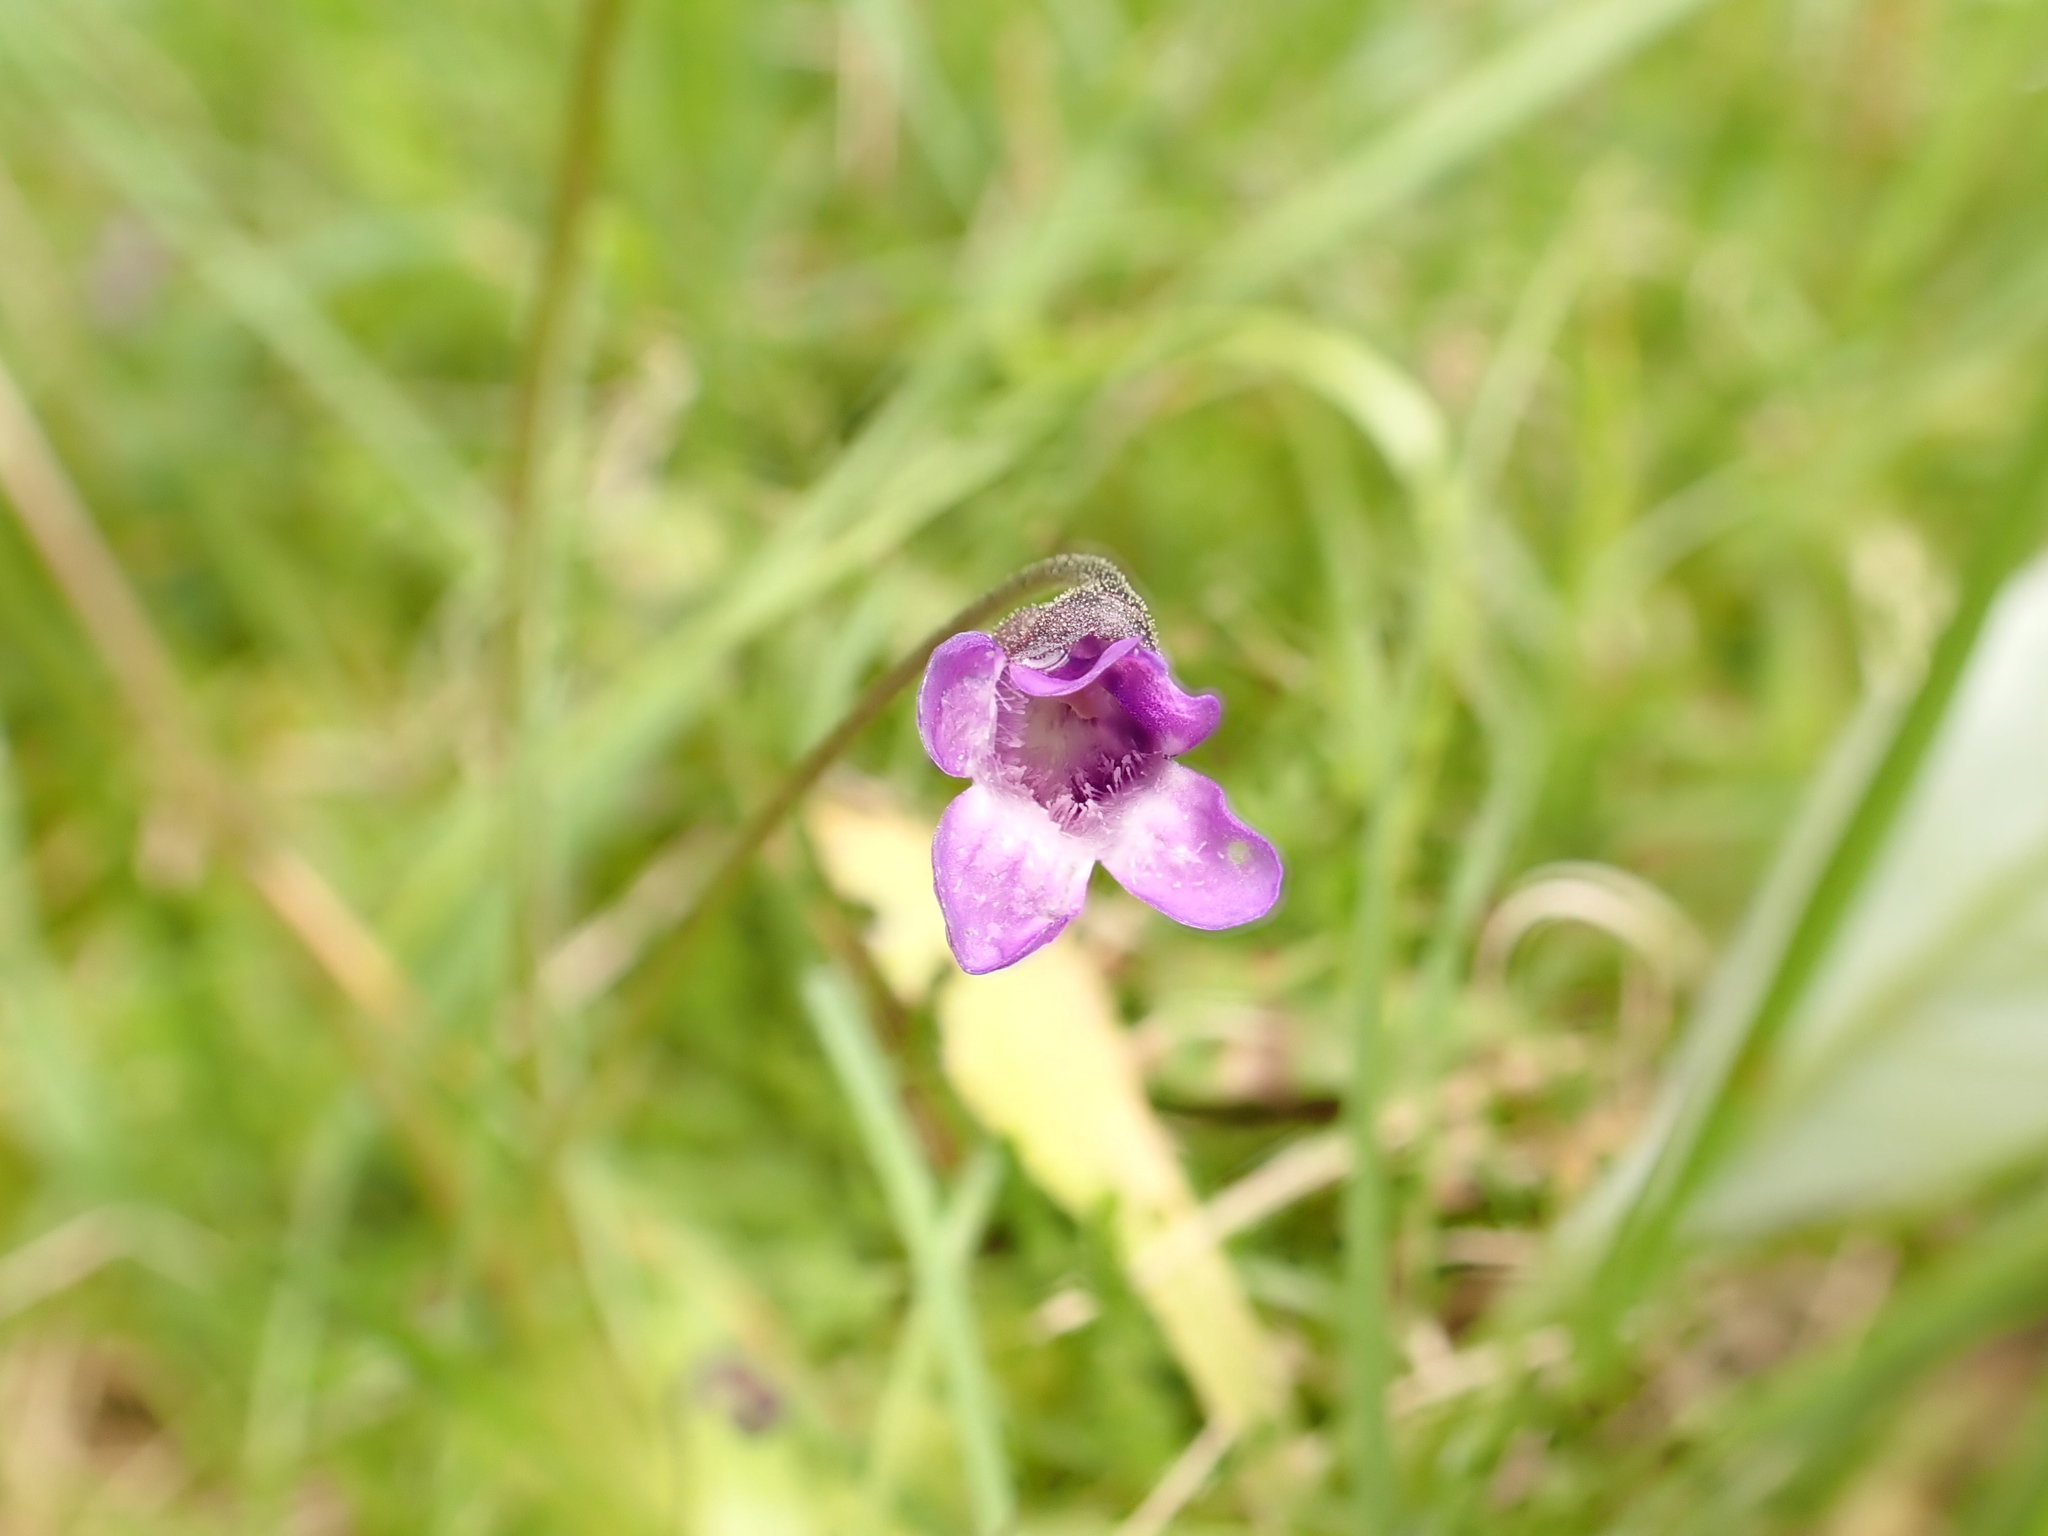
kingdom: Plantae
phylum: Tracheophyta
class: Magnoliopsida
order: Lamiales
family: Lentibulariaceae
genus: Pinguicula
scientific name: Pinguicula vulgaris
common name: Common butterwort
